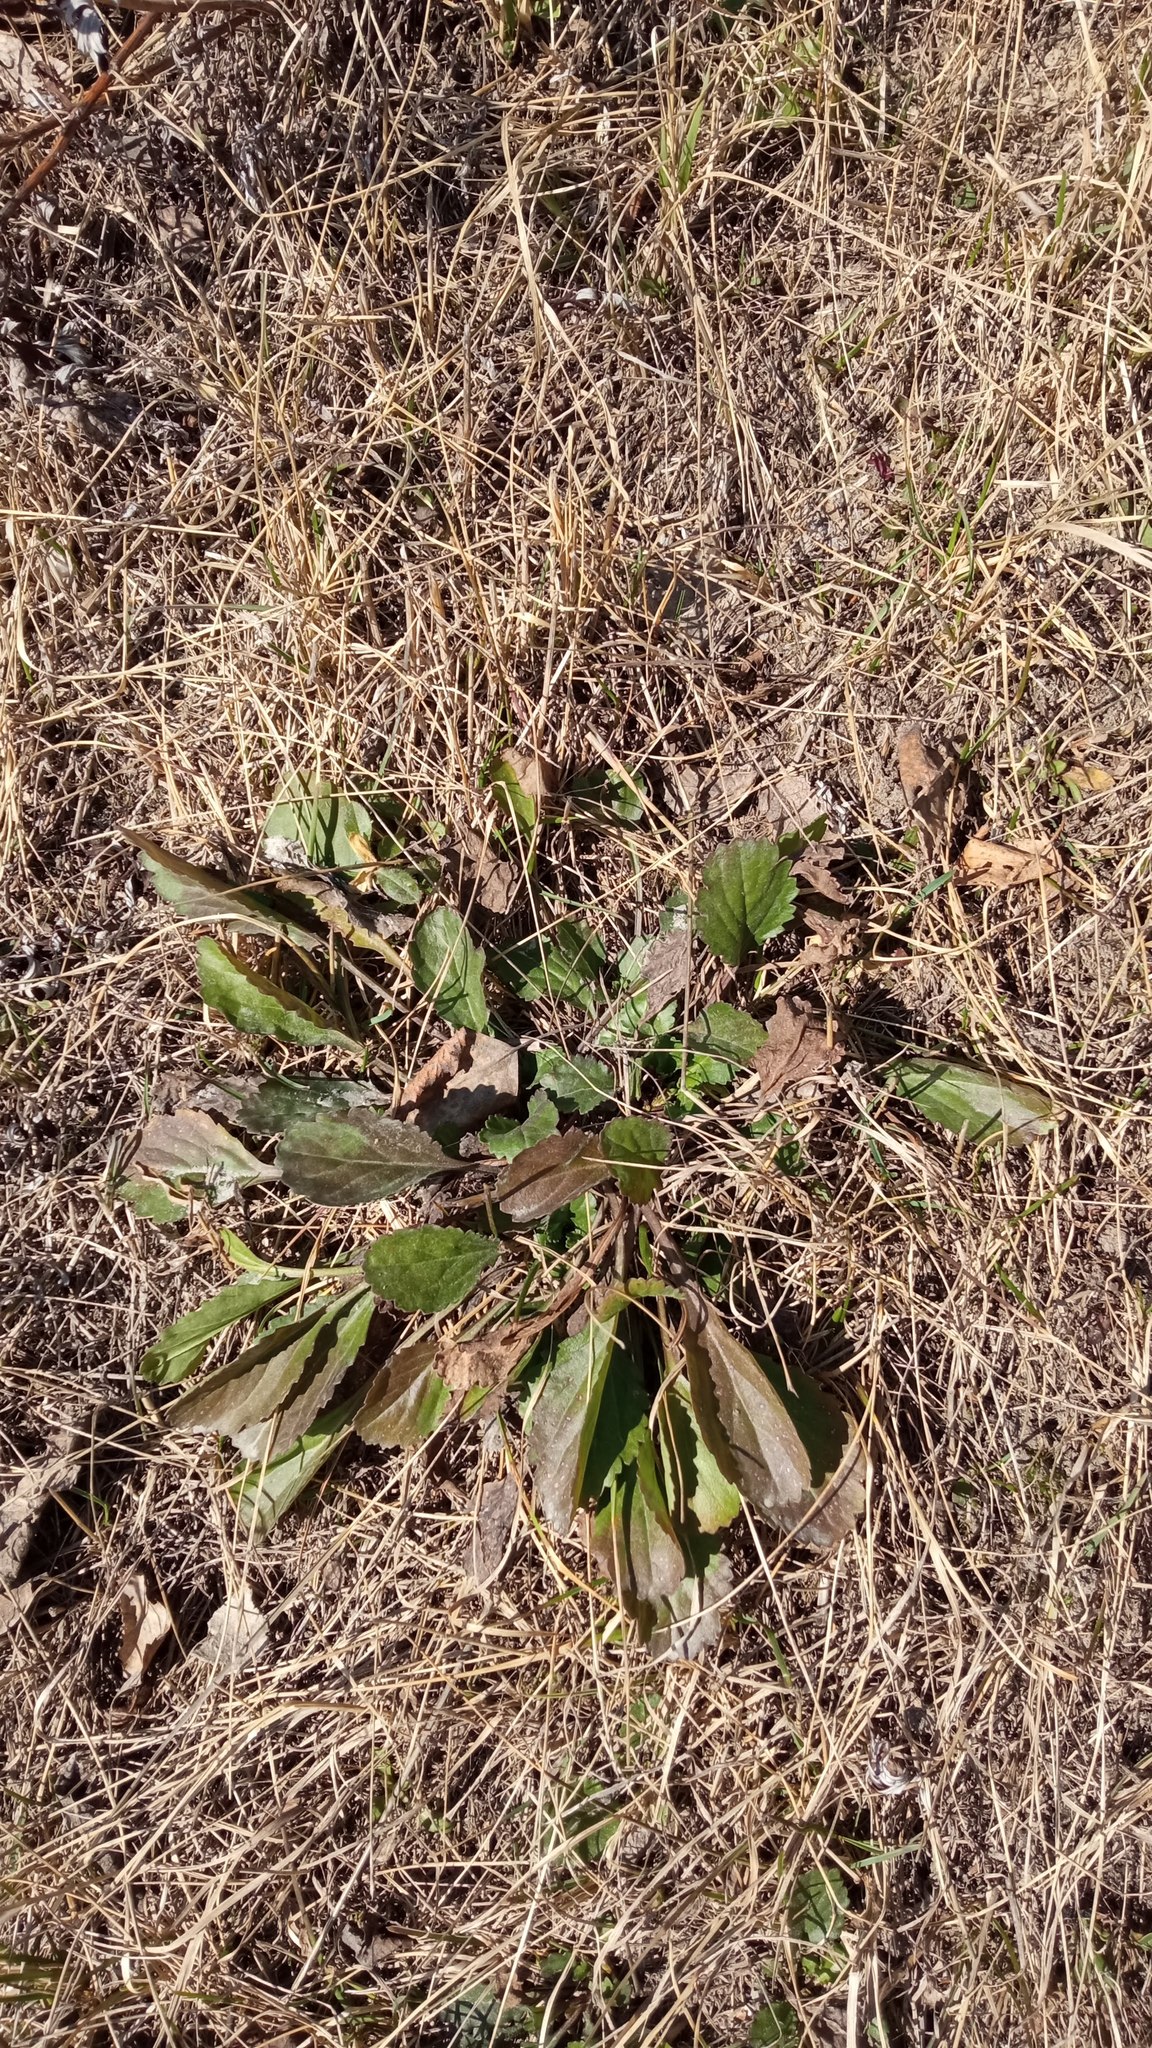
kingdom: Plantae
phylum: Tracheophyta
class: Magnoliopsida
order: Asterales
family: Asteraceae
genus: Leucanthemum
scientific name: Leucanthemum ircutianum
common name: Daisy
